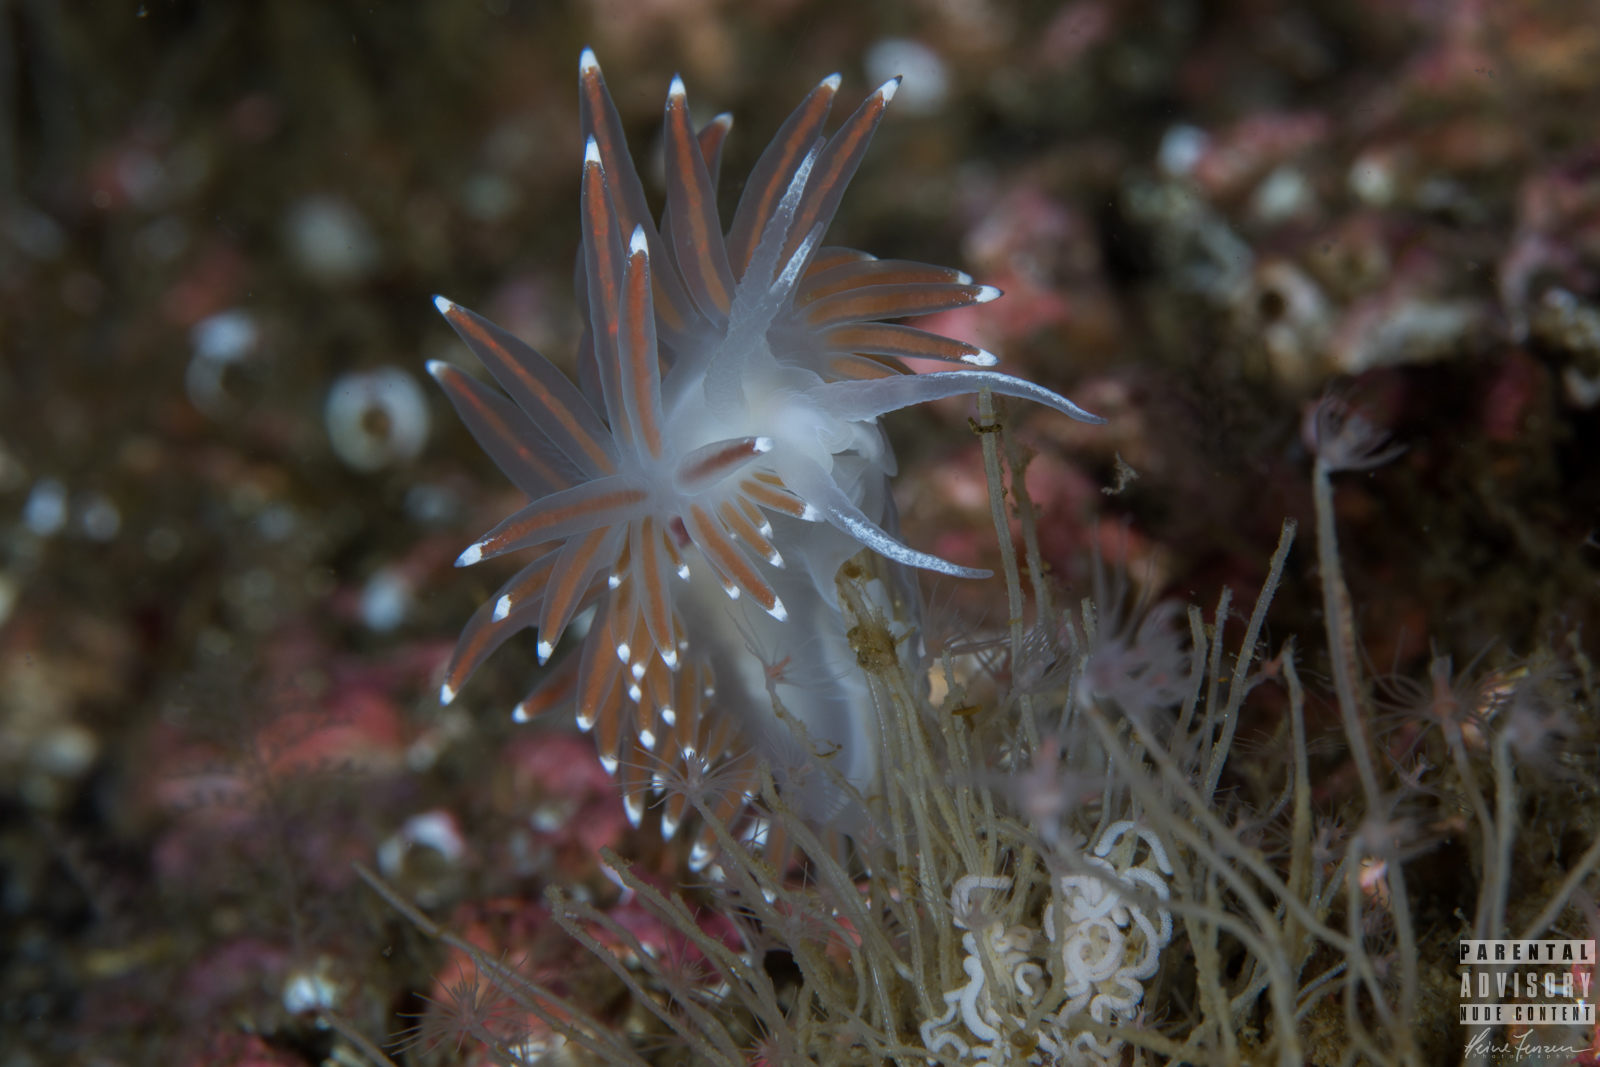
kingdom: Animalia
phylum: Mollusca
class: Gastropoda
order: Nudibranchia
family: Coryphellidae
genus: Coryphella
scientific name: Coryphella browni
